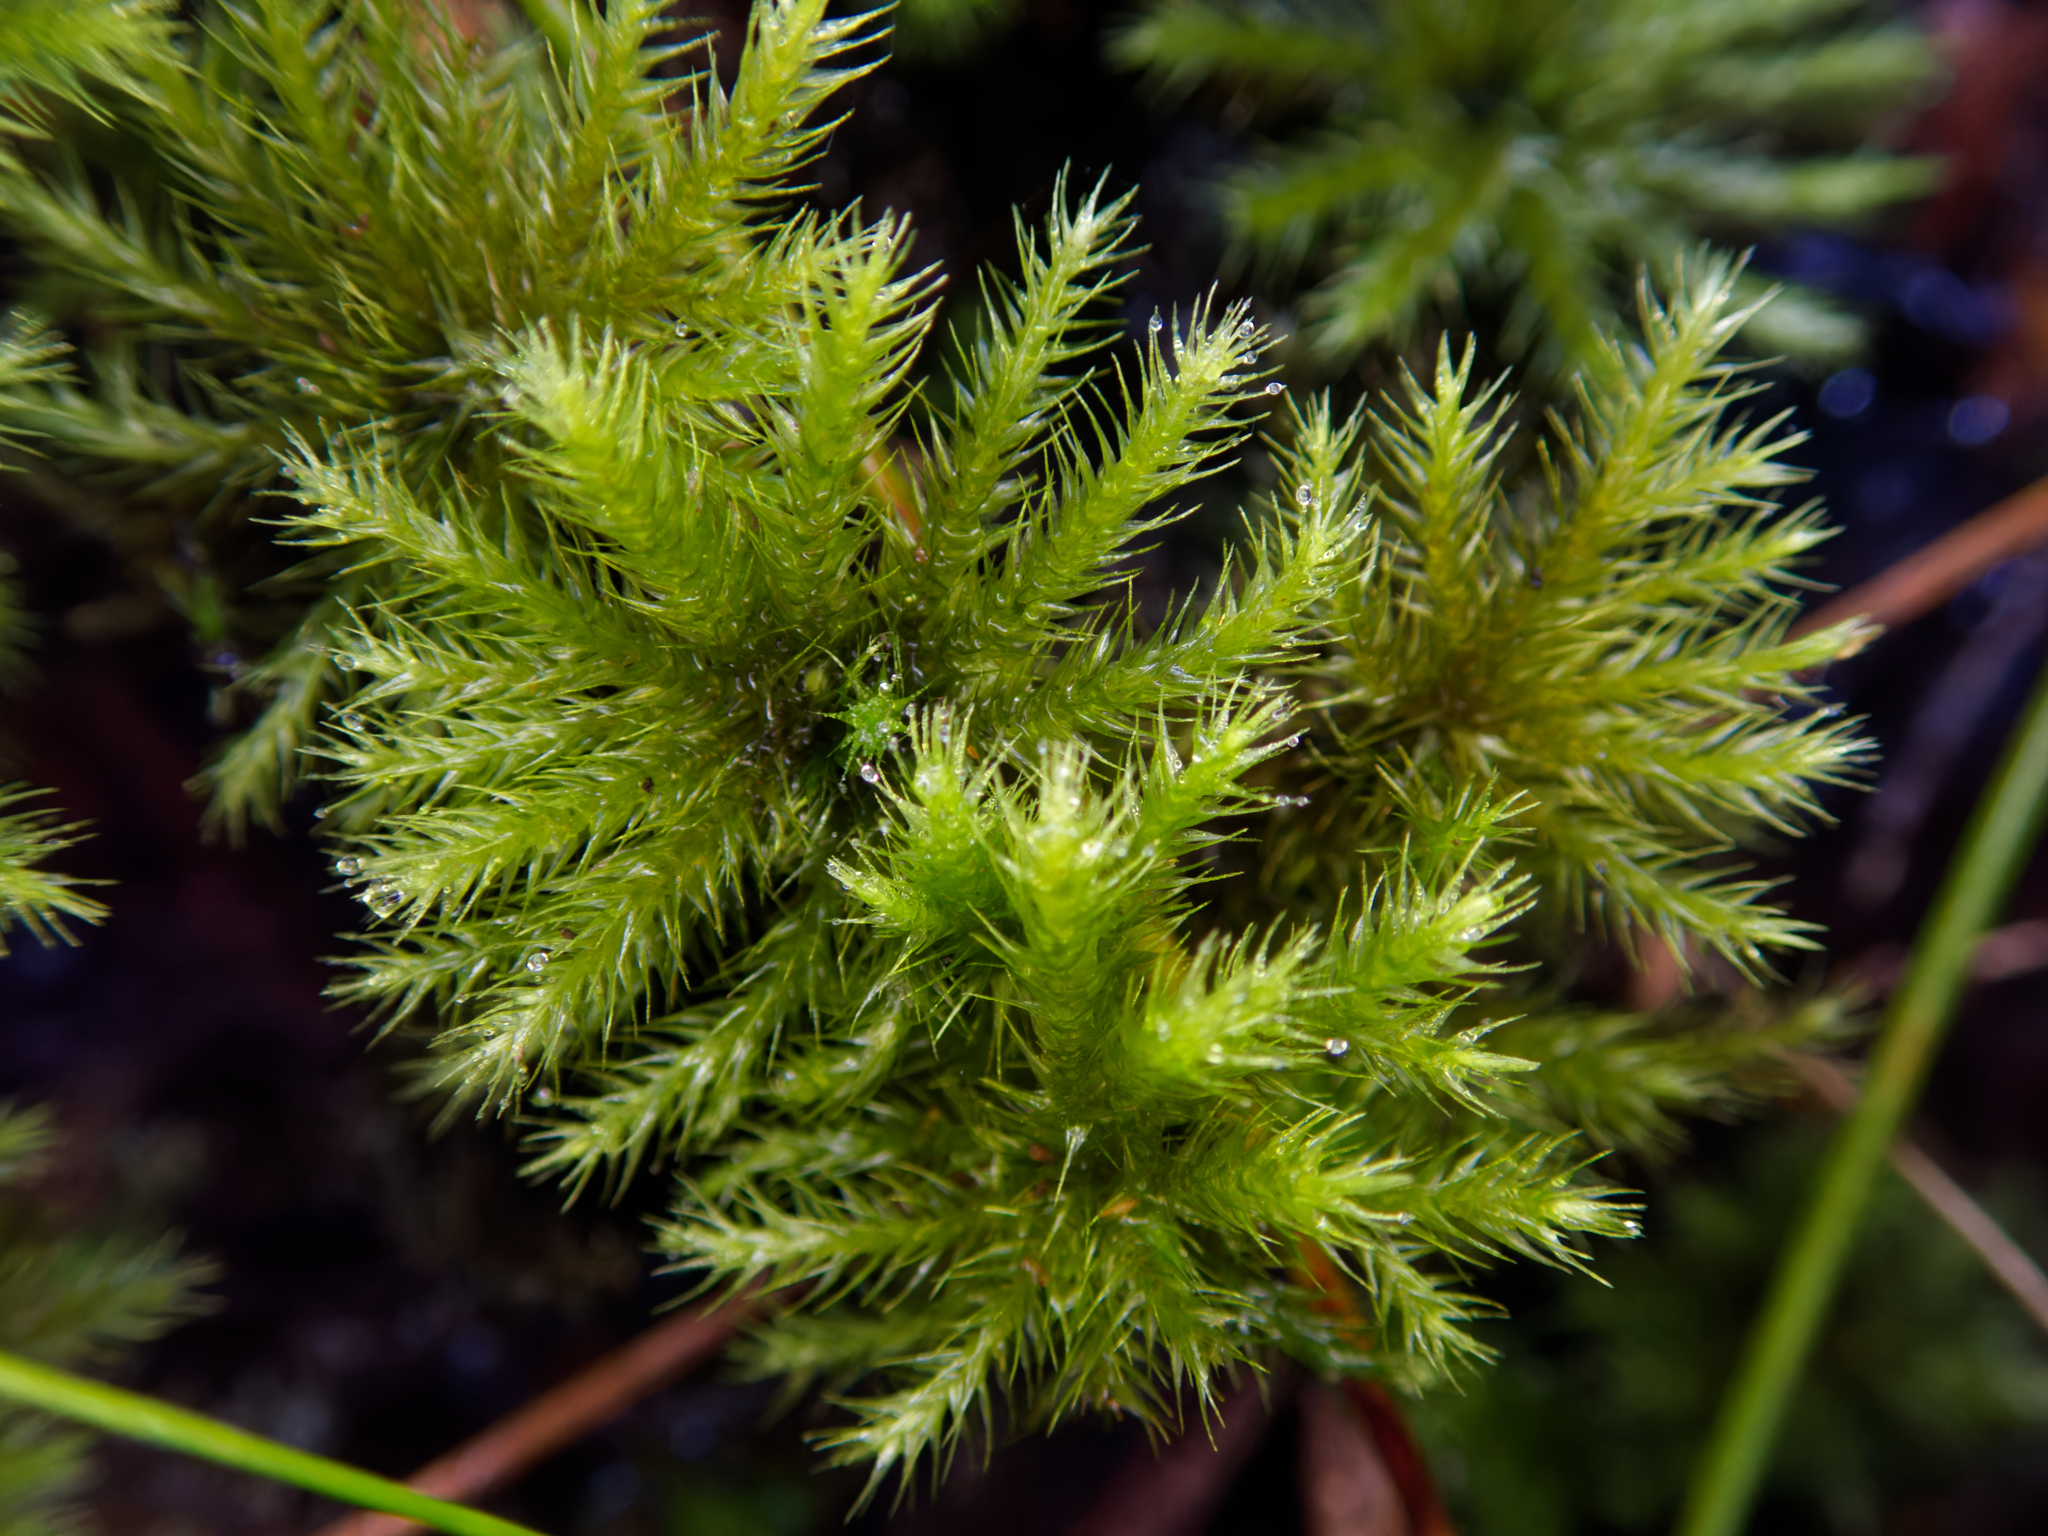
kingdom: Plantae
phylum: Bryophyta
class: Bryopsida
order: Hypnodendrales
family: Spiridentaceae
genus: Mniodendron
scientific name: Mniodendron colensoi
